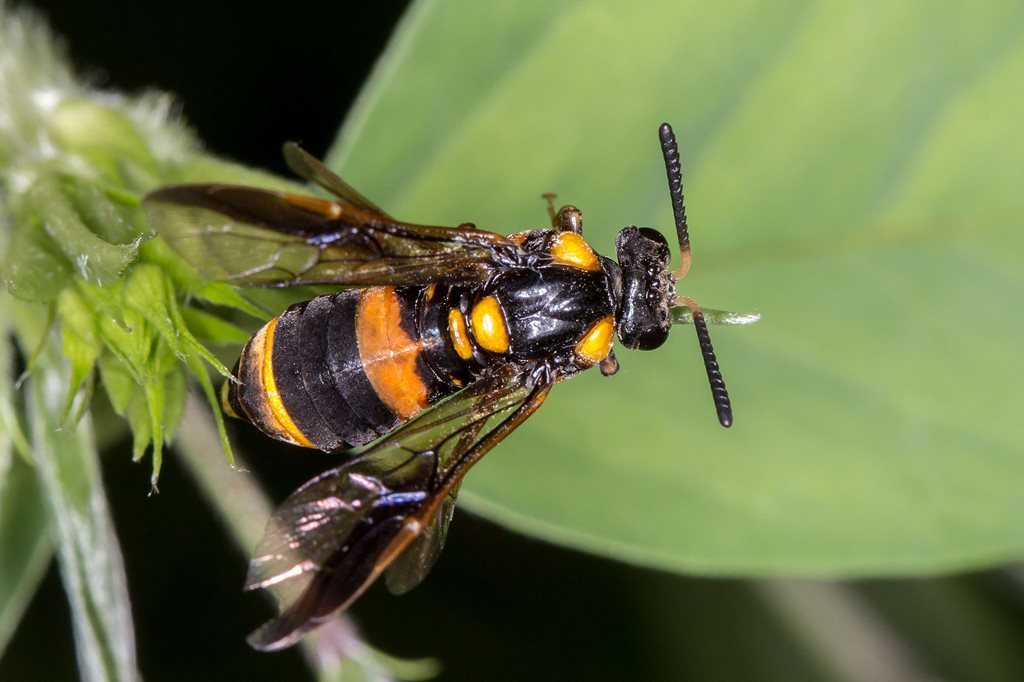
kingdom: Animalia
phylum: Arthropoda
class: Insecta
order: Hymenoptera
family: Pergidae
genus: Pterygophorus
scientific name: Pterygophorus
